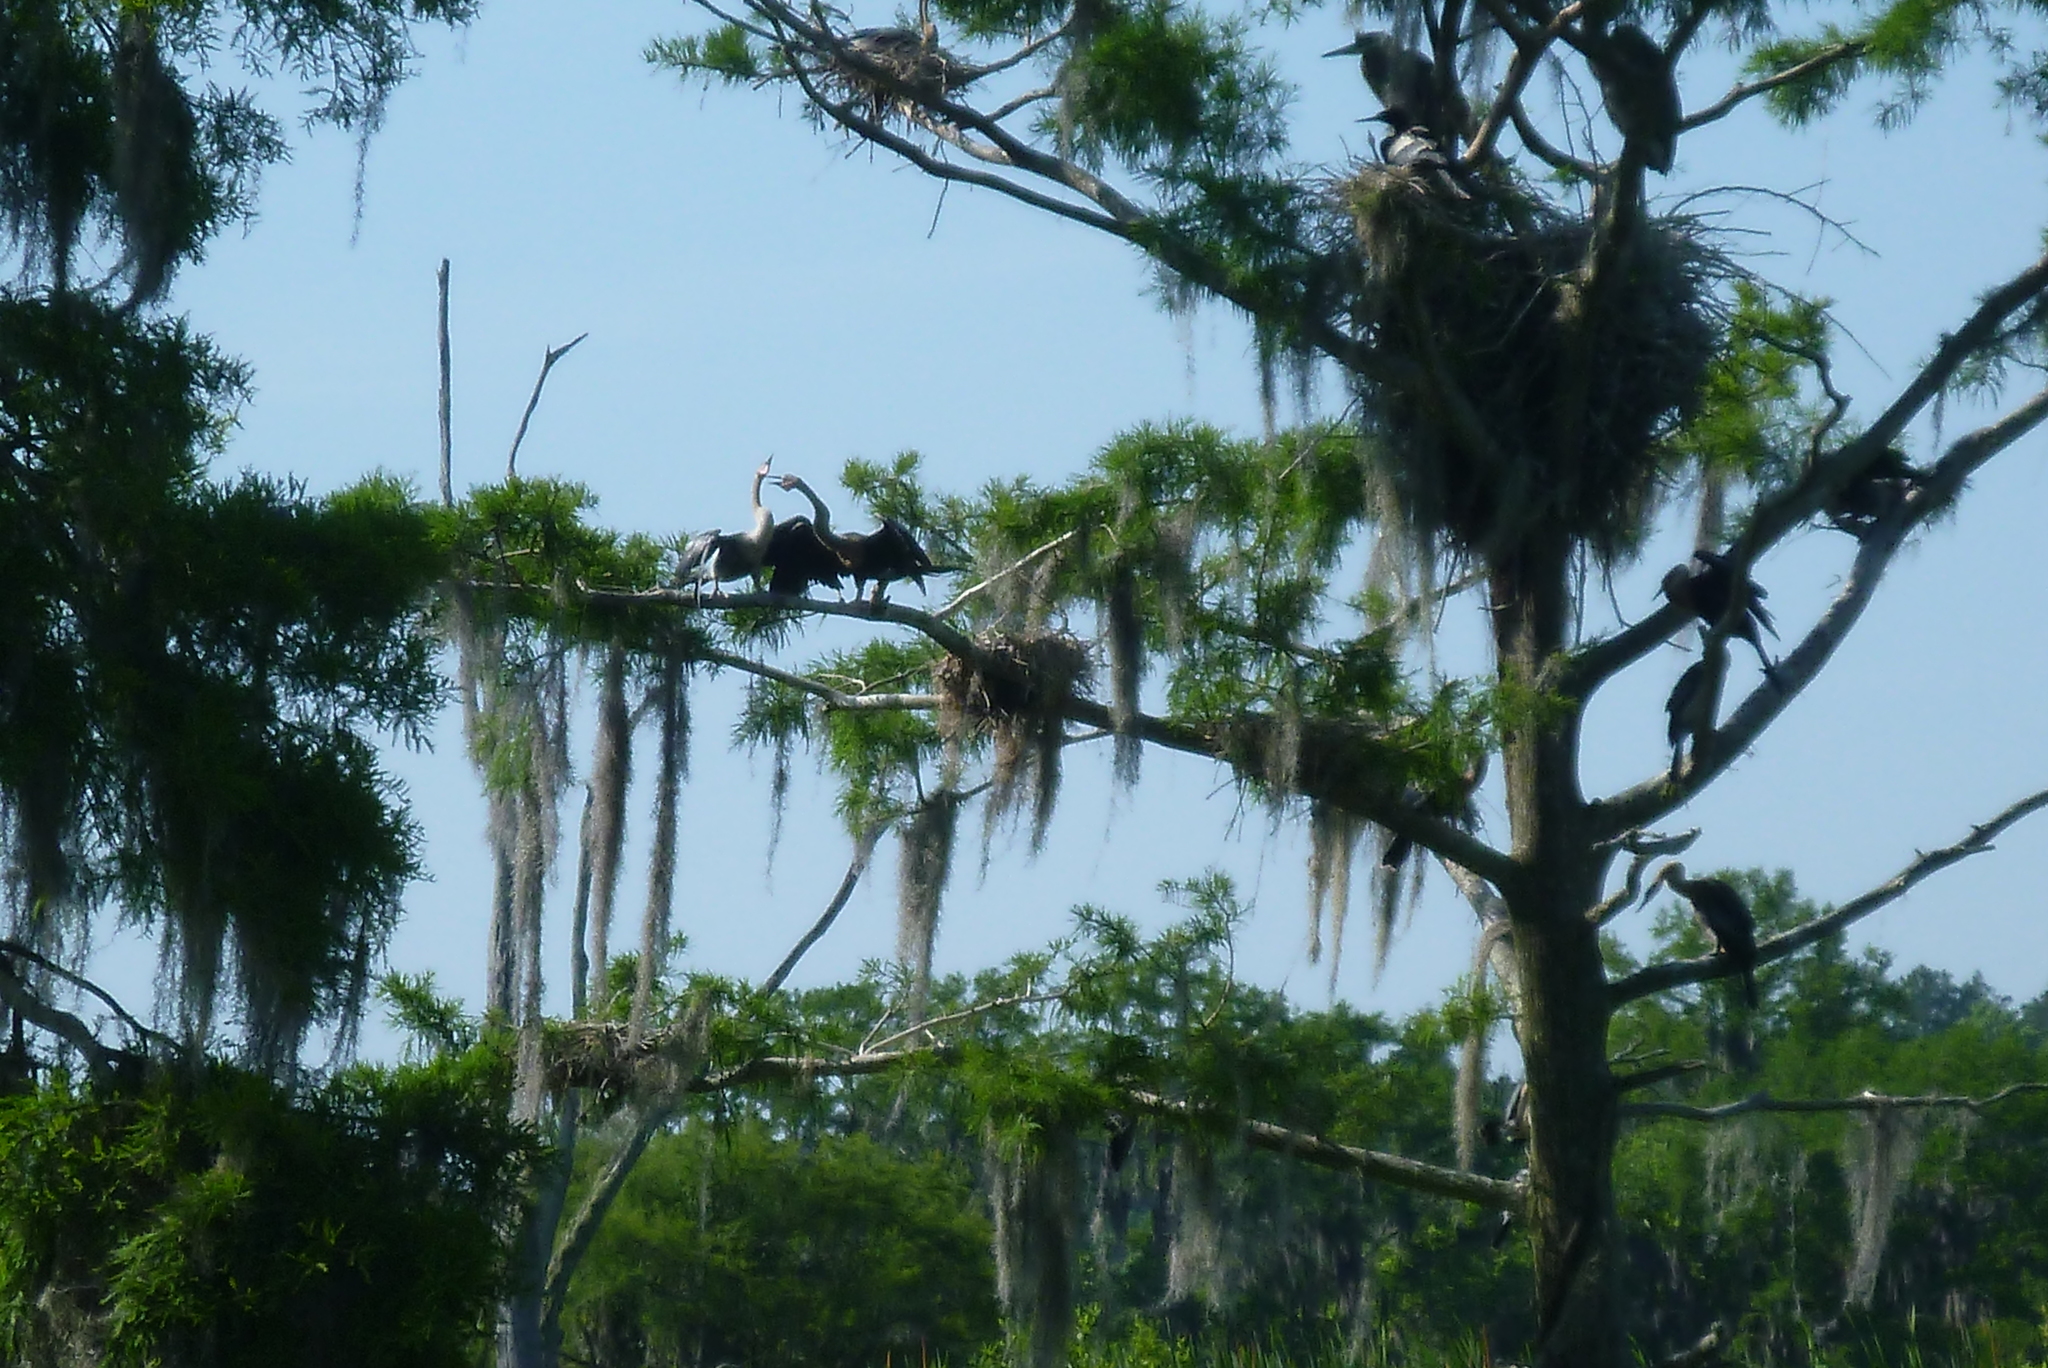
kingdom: Animalia
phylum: Chordata
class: Aves
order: Suliformes
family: Anhingidae
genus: Anhinga
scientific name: Anhinga anhinga
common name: Anhinga
